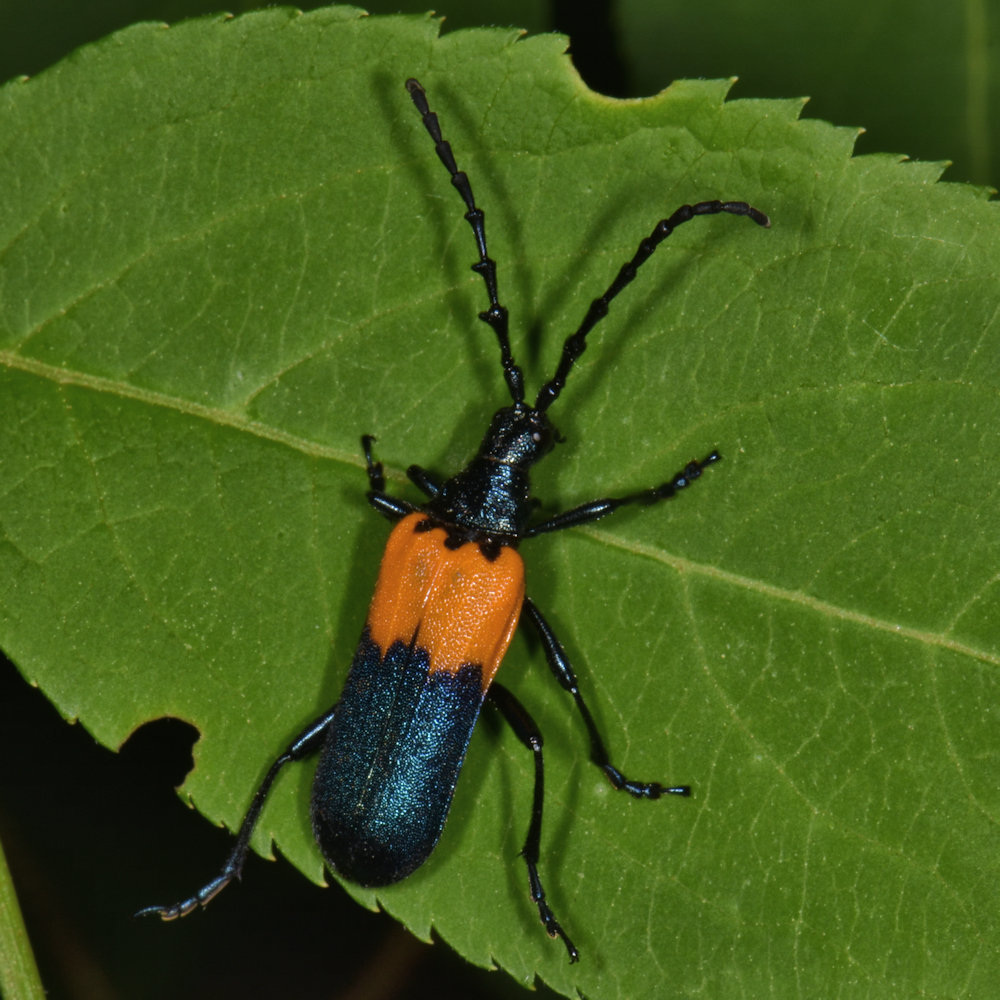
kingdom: Animalia
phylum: Arthropoda
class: Insecta
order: Coleoptera
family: Cerambycidae
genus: Desmocerus
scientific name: Desmocerus palliatus
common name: Eastern elderberry borer
